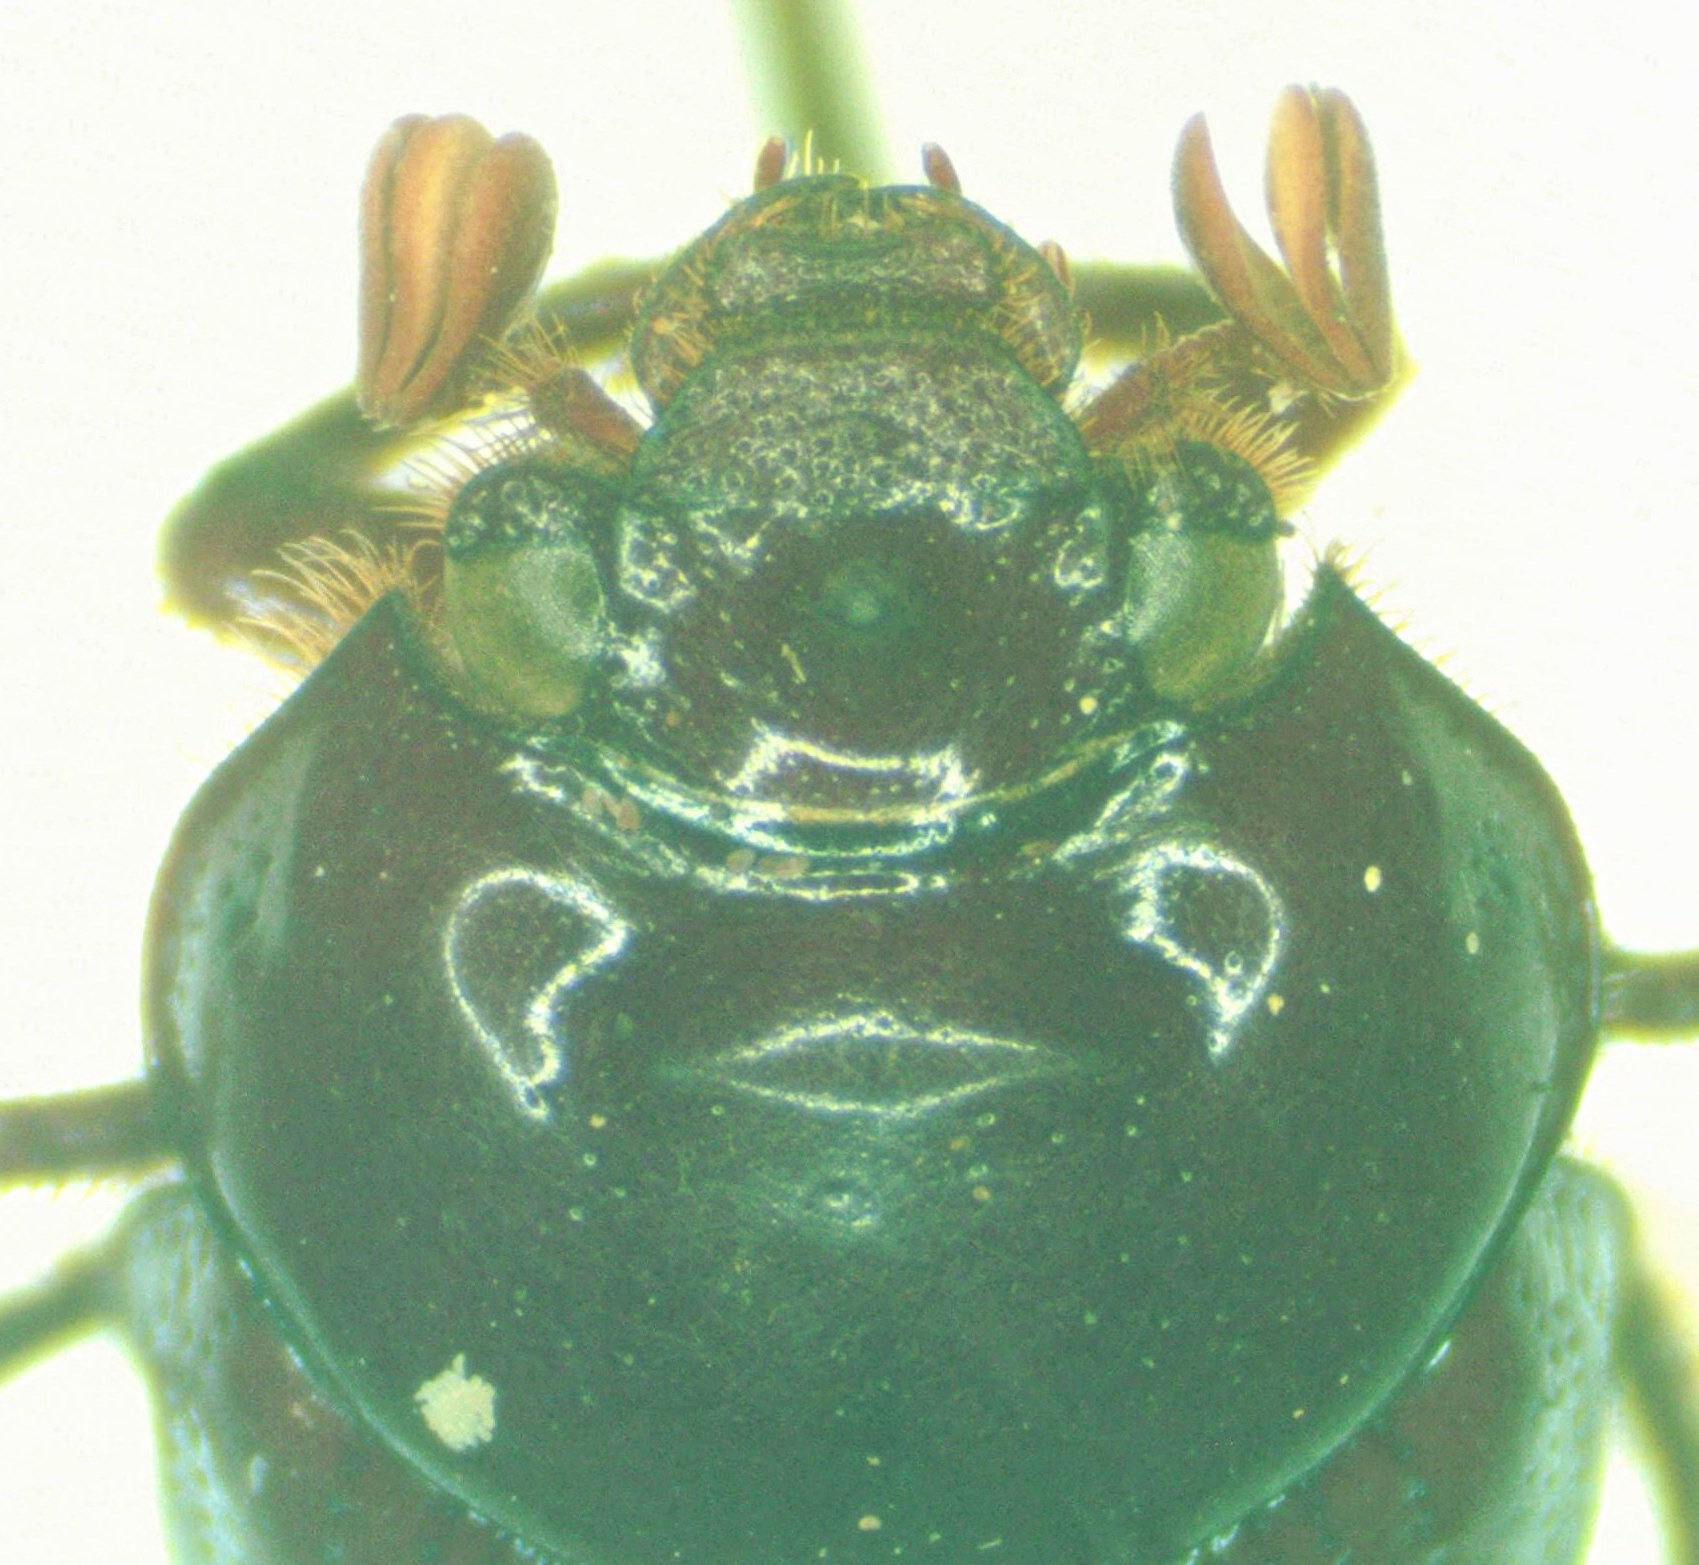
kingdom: Animalia
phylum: Arthropoda
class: Insecta
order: Coleoptera
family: Geotrupidae
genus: Bolbelasmus
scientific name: Bolbelasmus arcuatus
